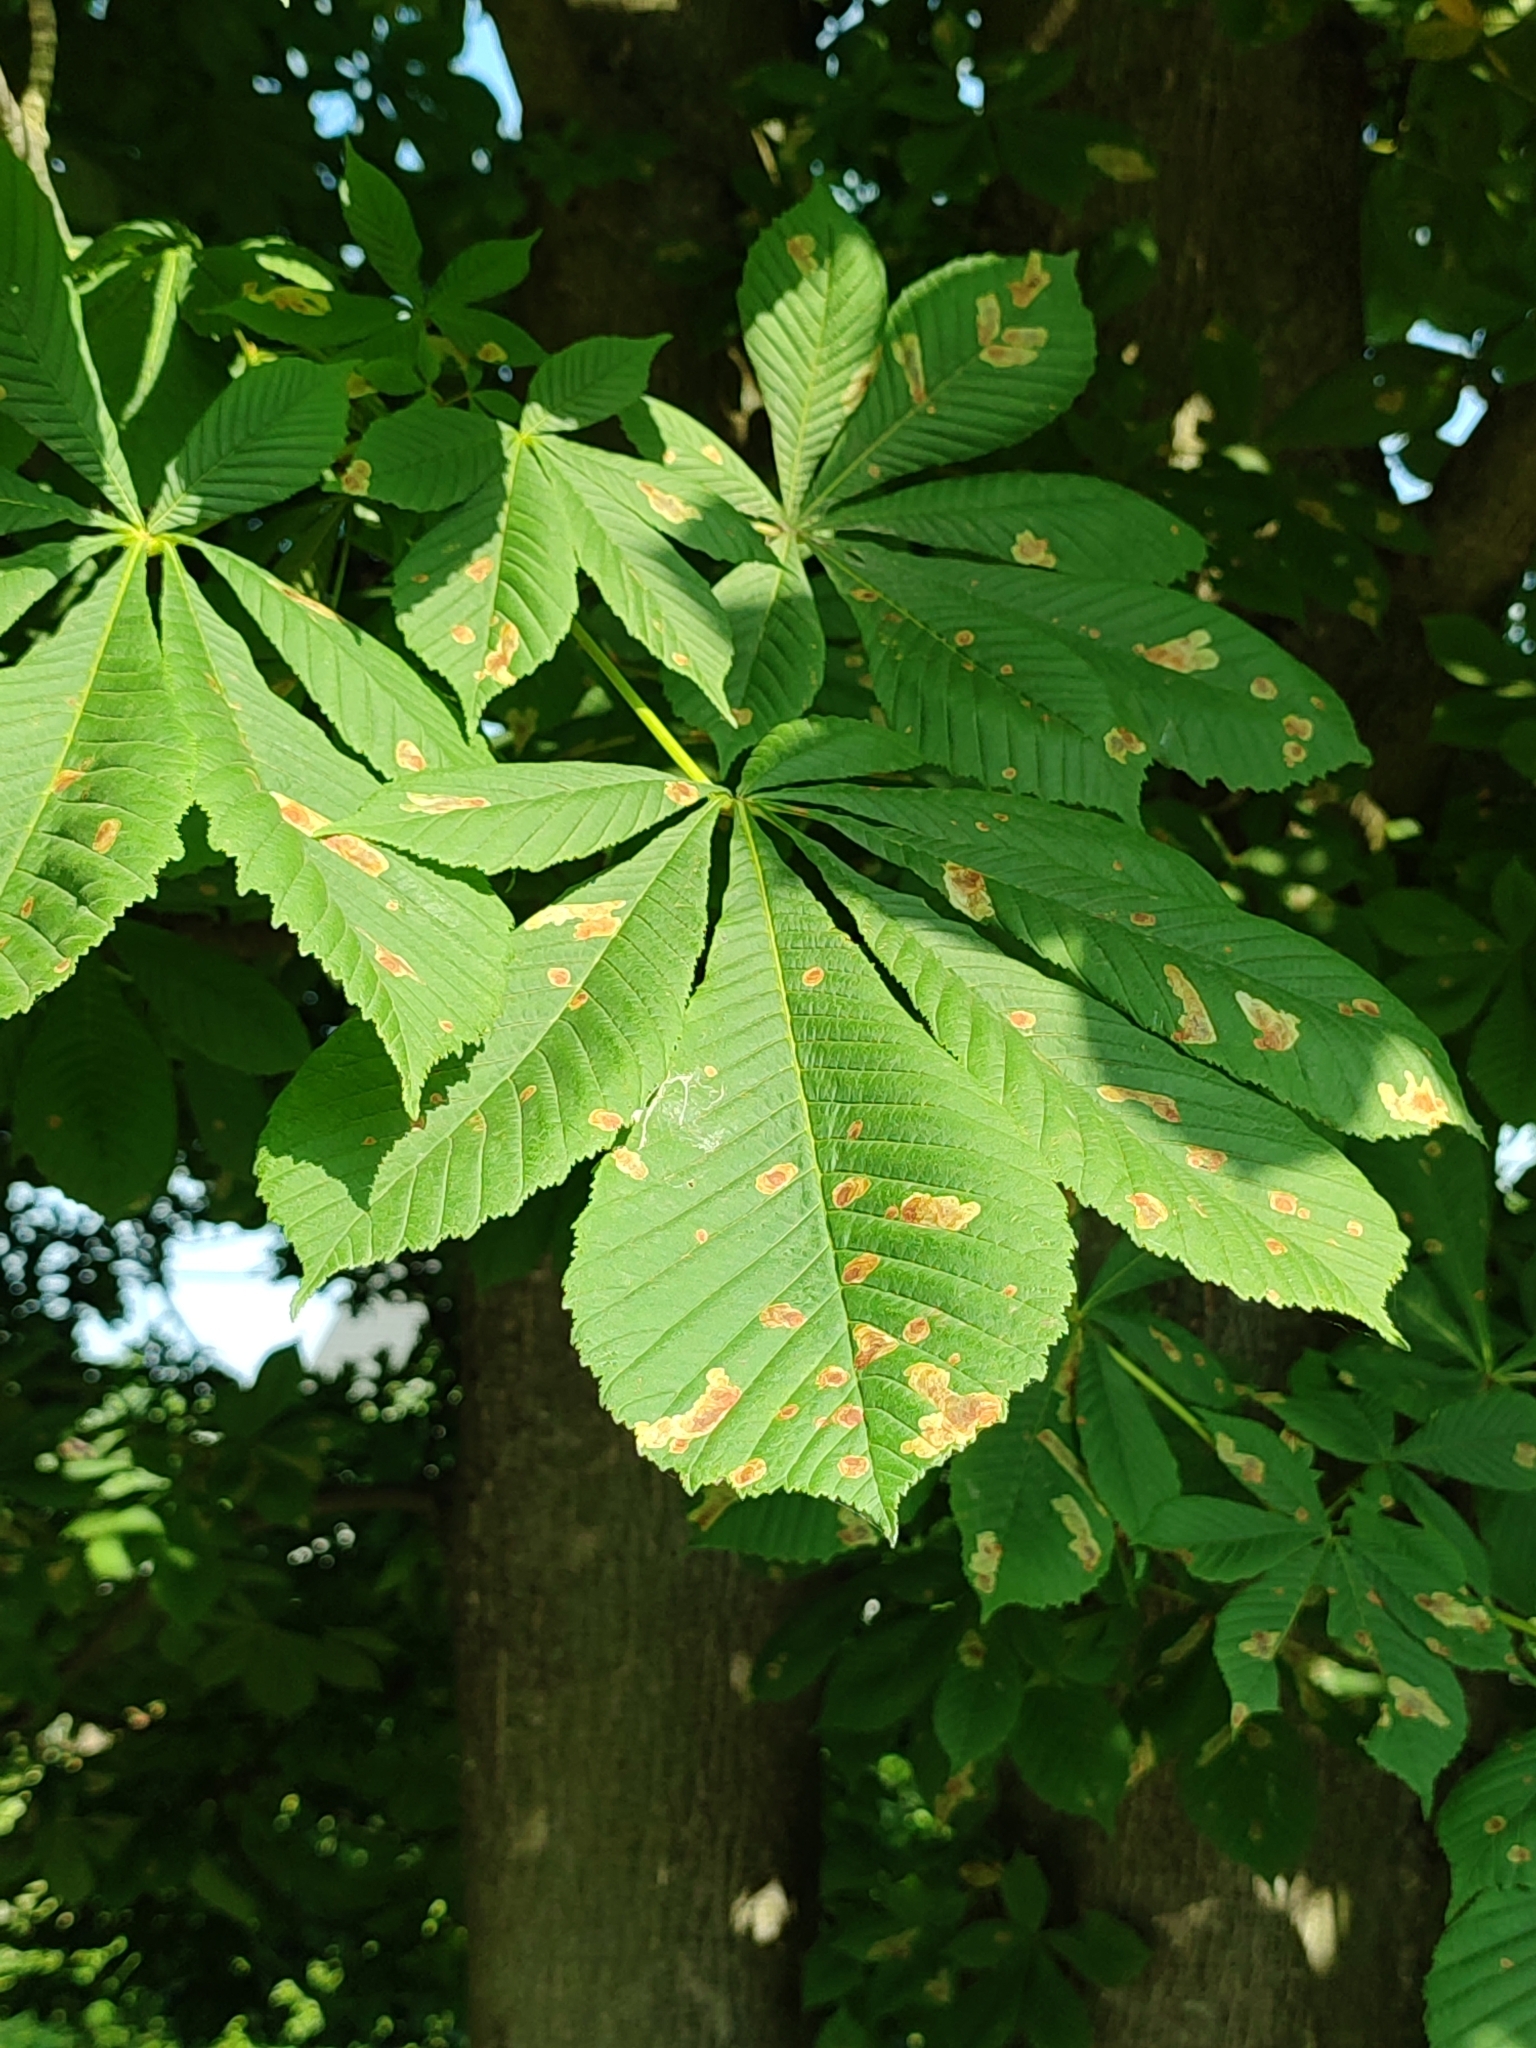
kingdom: Animalia
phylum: Arthropoda
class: Insecta
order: Lepidoptera
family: Gracillariidae
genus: Cameraria
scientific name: Cameraria ohridella
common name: Horse-chestnut leaf-miner
